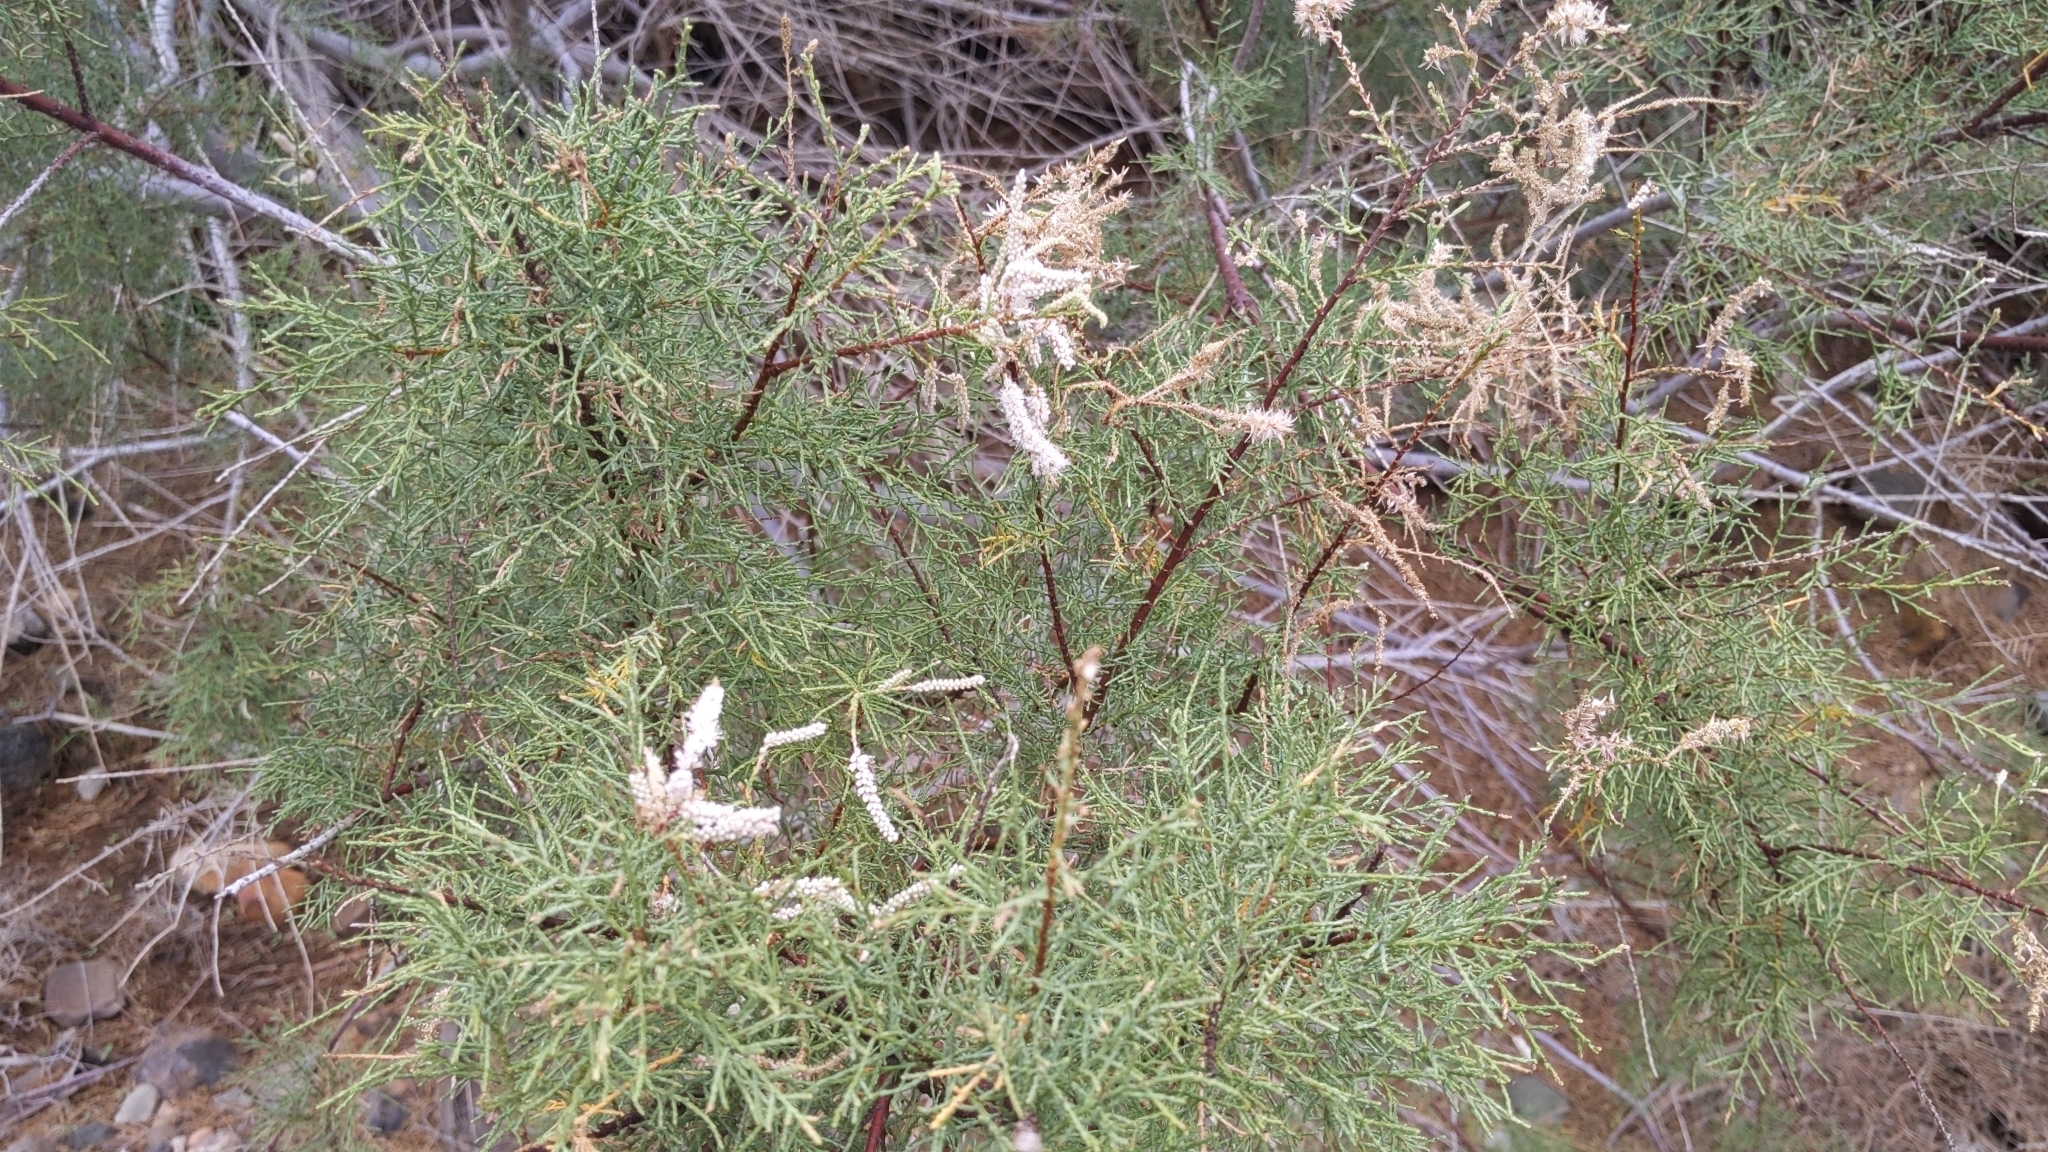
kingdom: Plantae
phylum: Tracheophyta
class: Magnoliopsida
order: Caryophyllales
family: Tamaricaceae
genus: Tamarix
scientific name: Tamarix canariensis
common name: Canary island tamarisk
